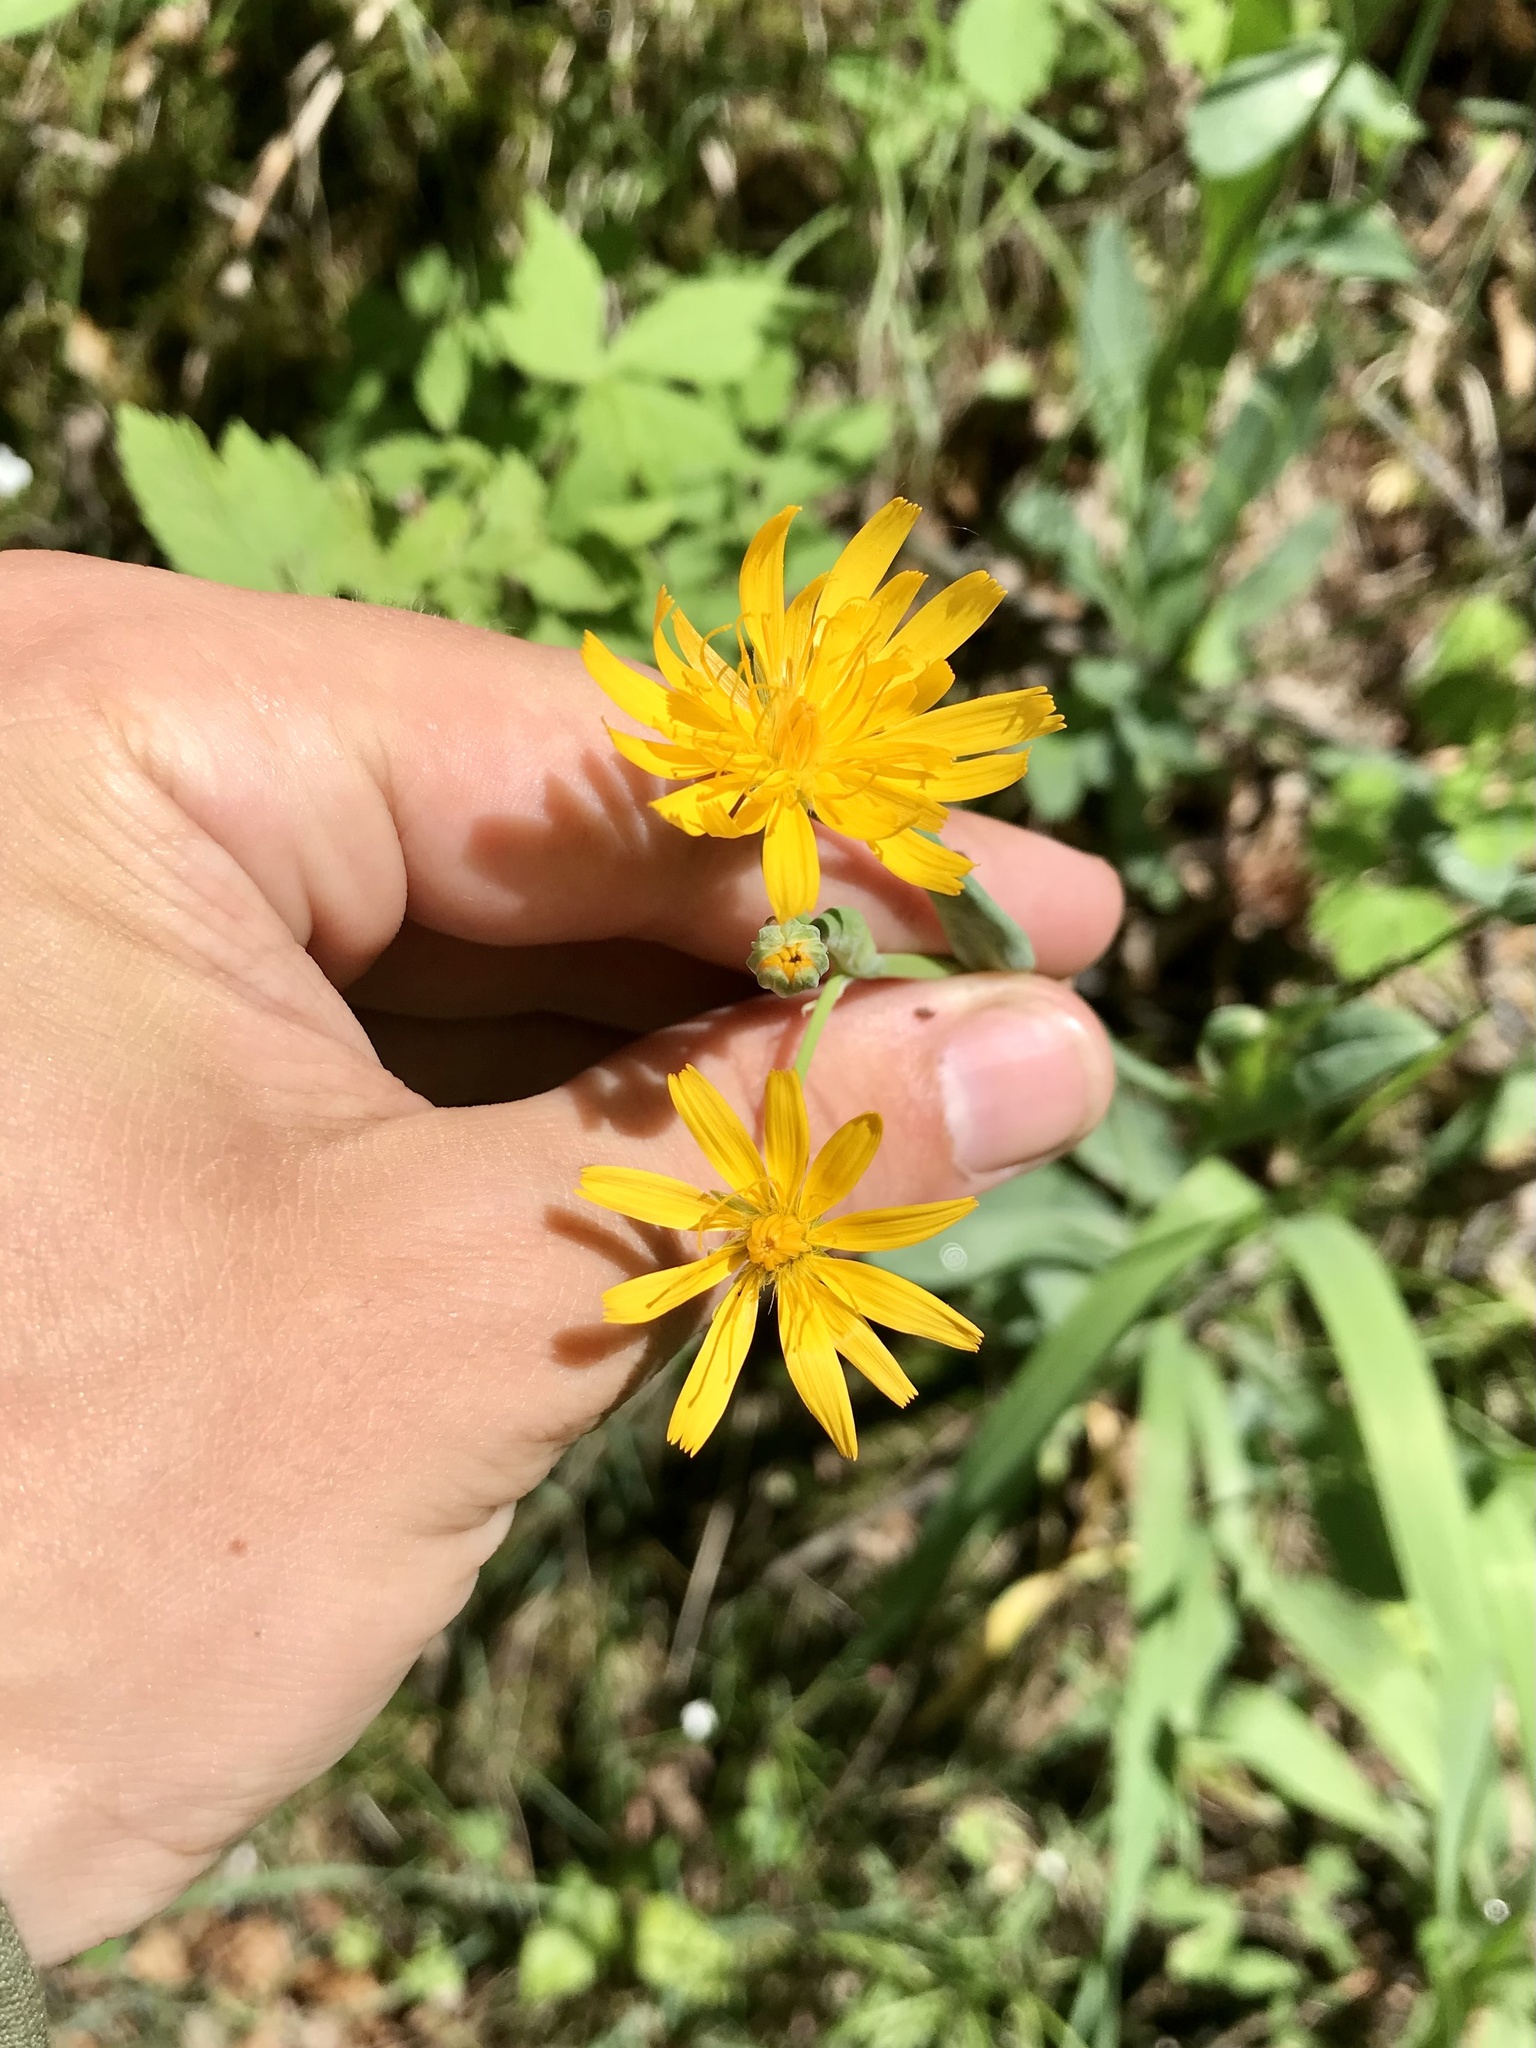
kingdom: Plantae
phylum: Tracheophyta
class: Magnoliopsida
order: Asterales
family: Asteraceae
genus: Krigia
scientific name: Krigia biflora
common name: Orange dwarf-dandelion
